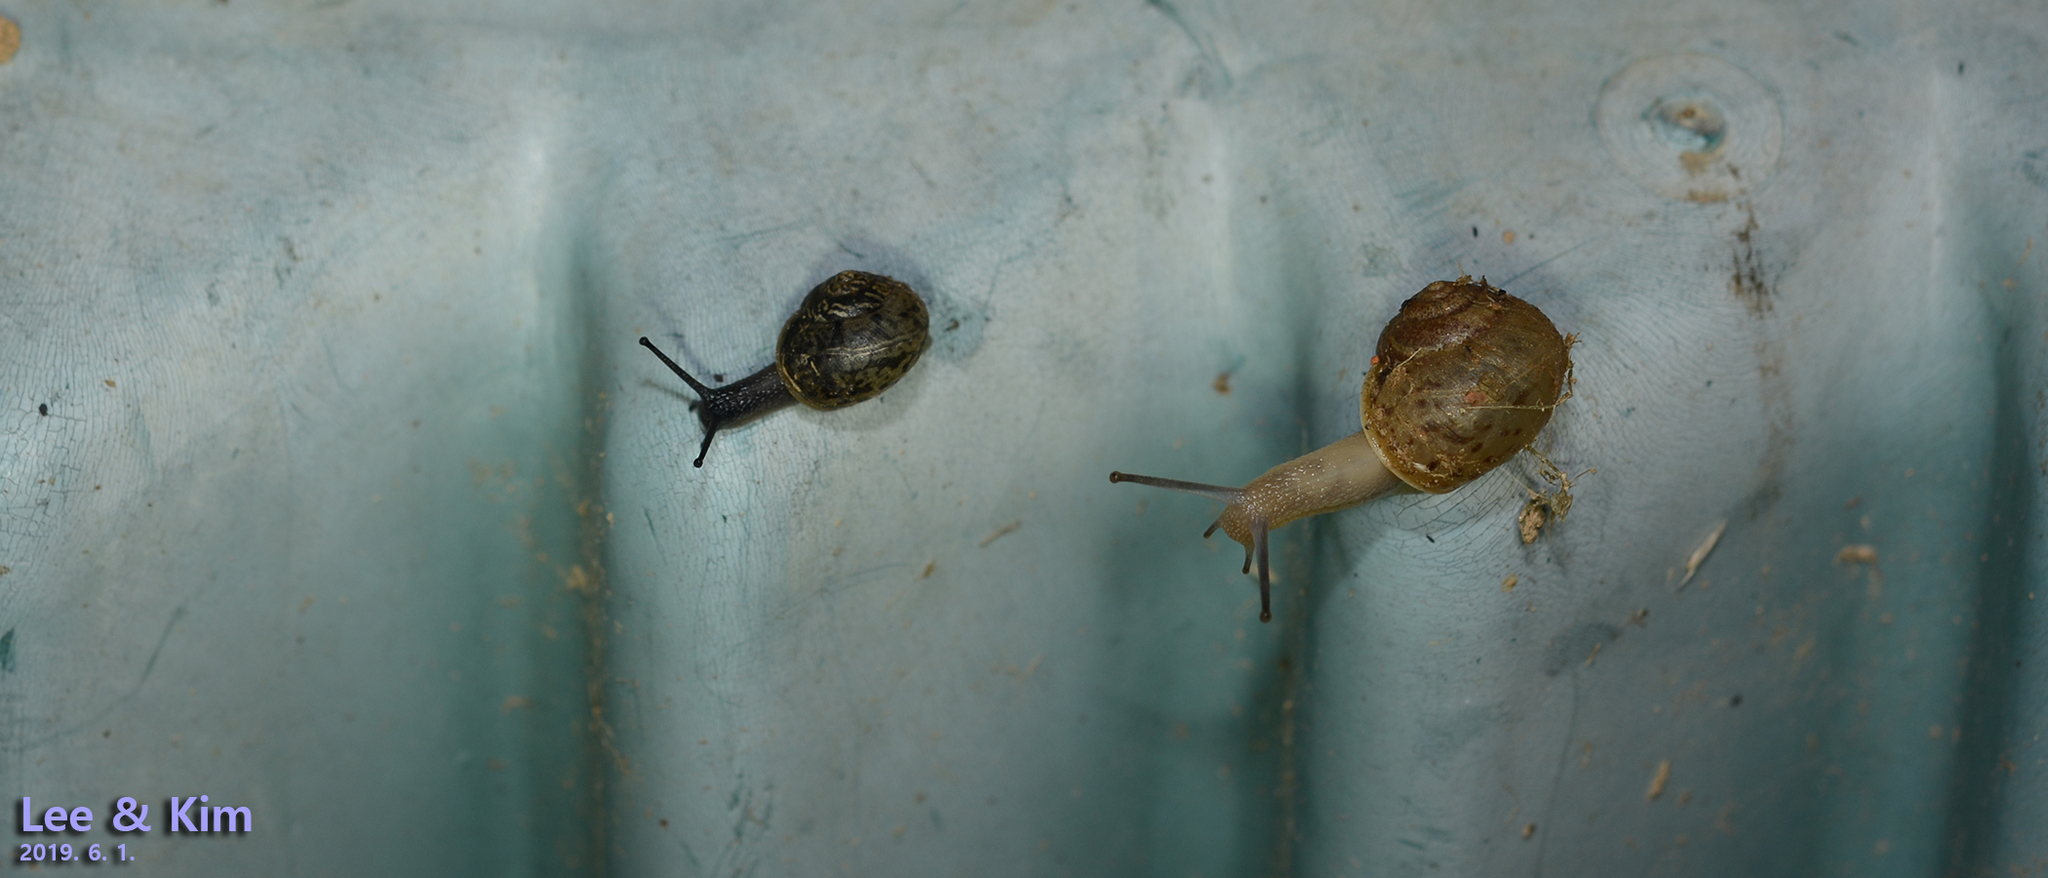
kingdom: Animalia
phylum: Mollusca
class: Gastropoda
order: Stylommatophora
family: Camaenidae
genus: Acusta
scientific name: Acusta redfieldi
